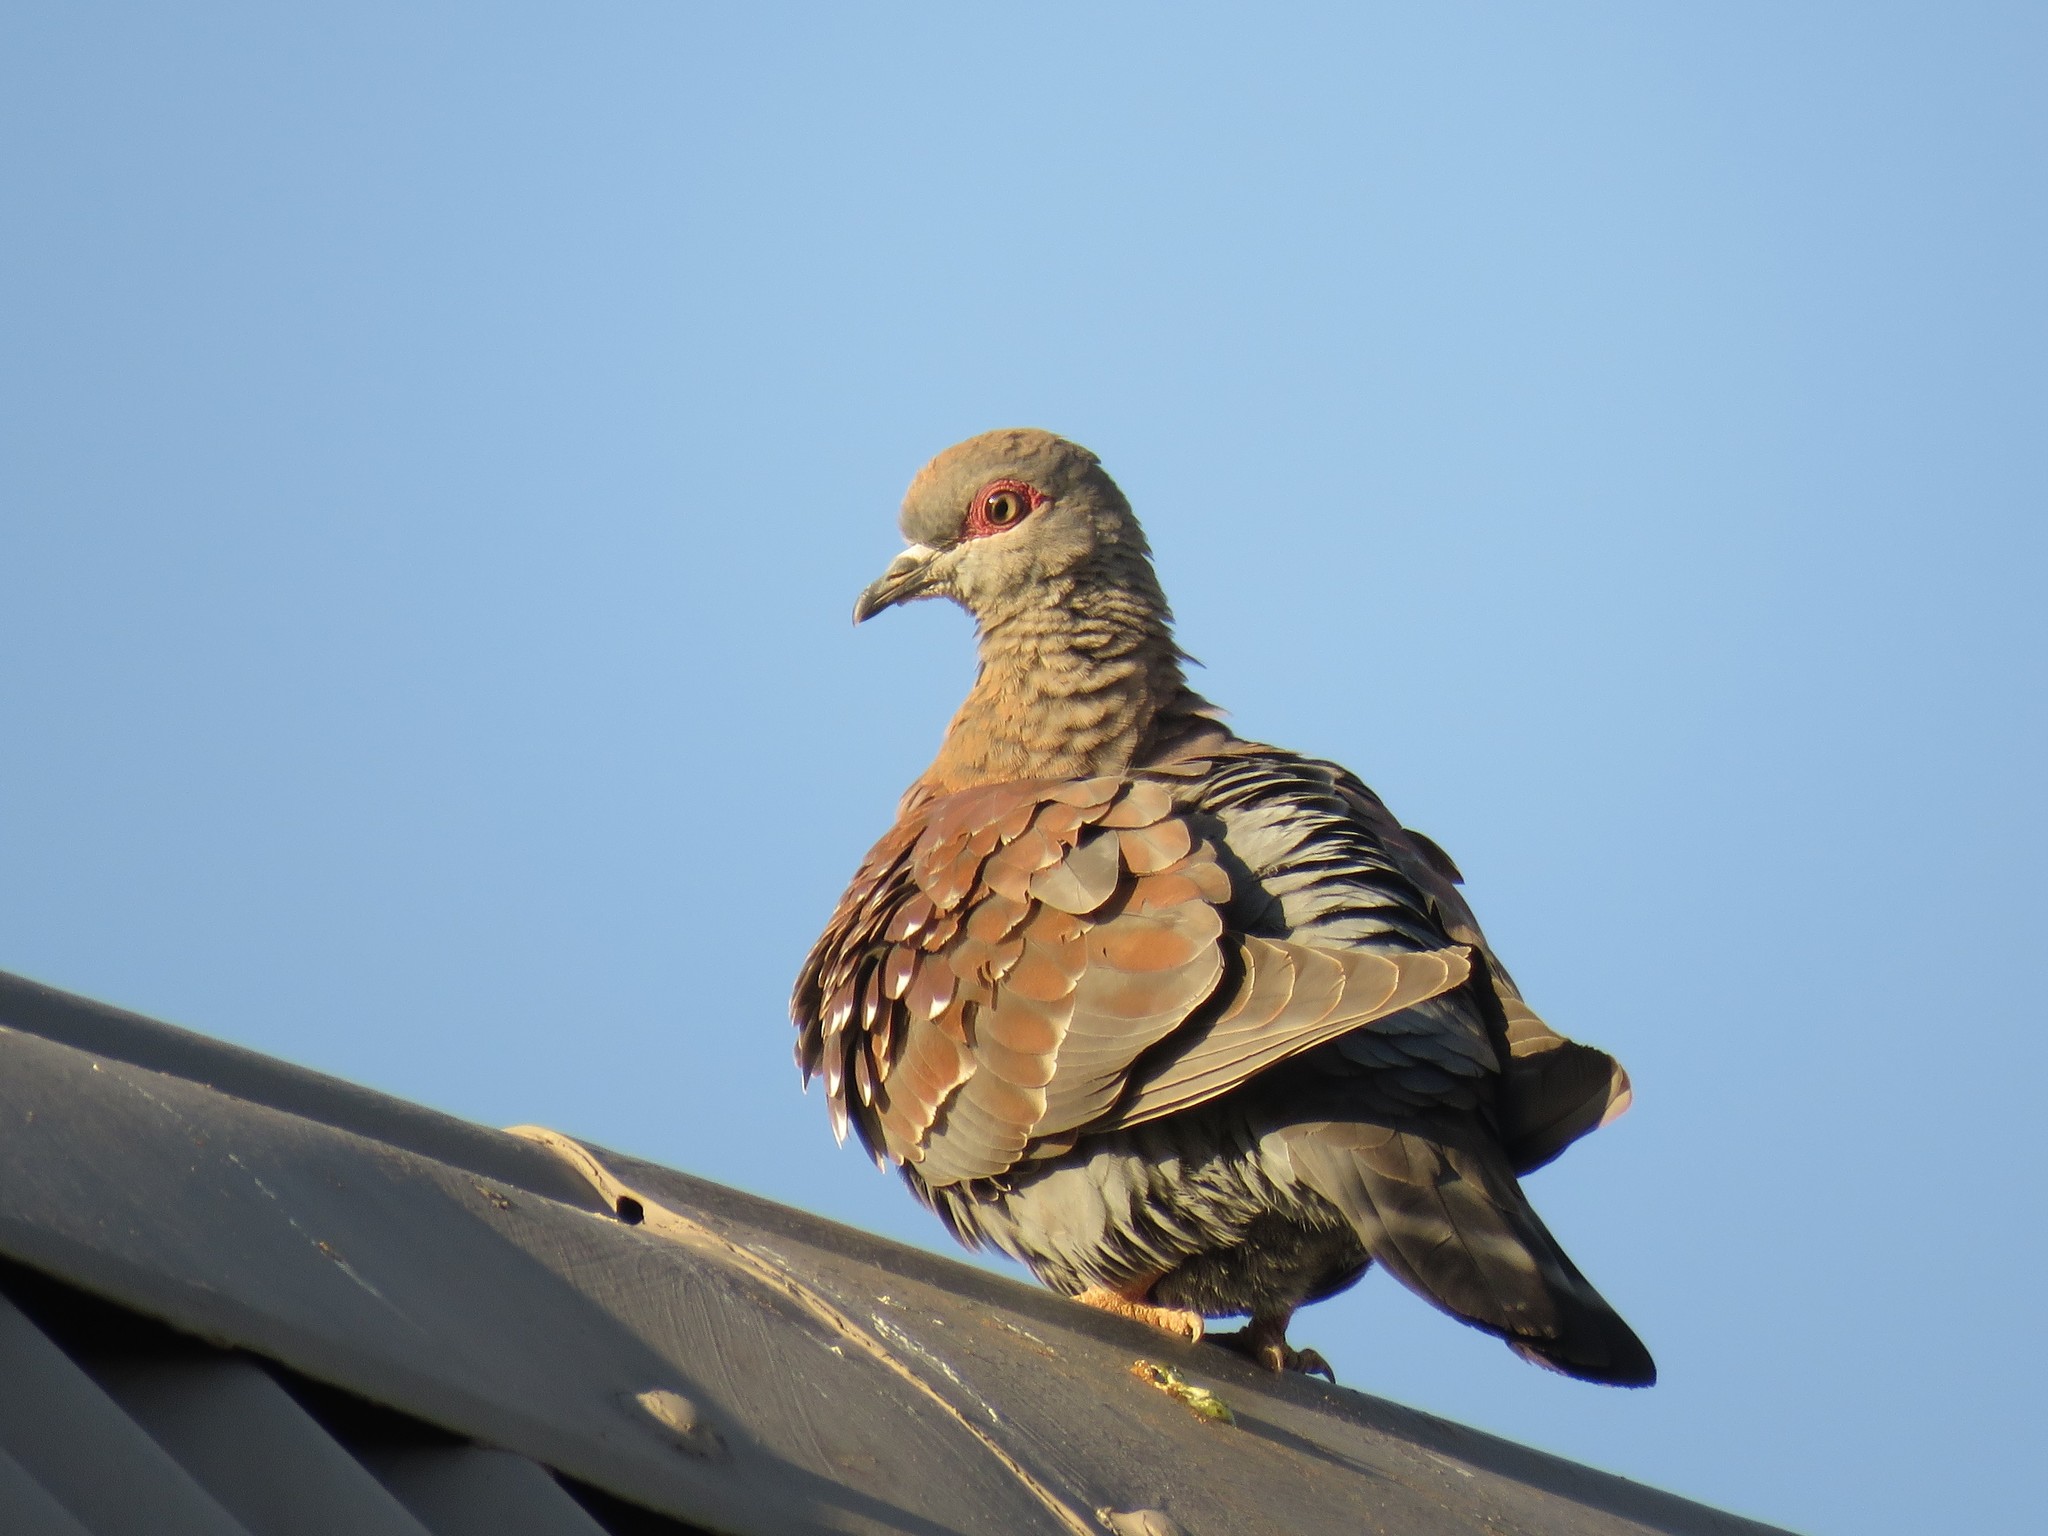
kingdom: Animalia
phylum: Chordata
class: Aves
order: Columbiformes
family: Columbidae
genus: Columba
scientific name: Columba guinea
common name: Speckled pigeon
